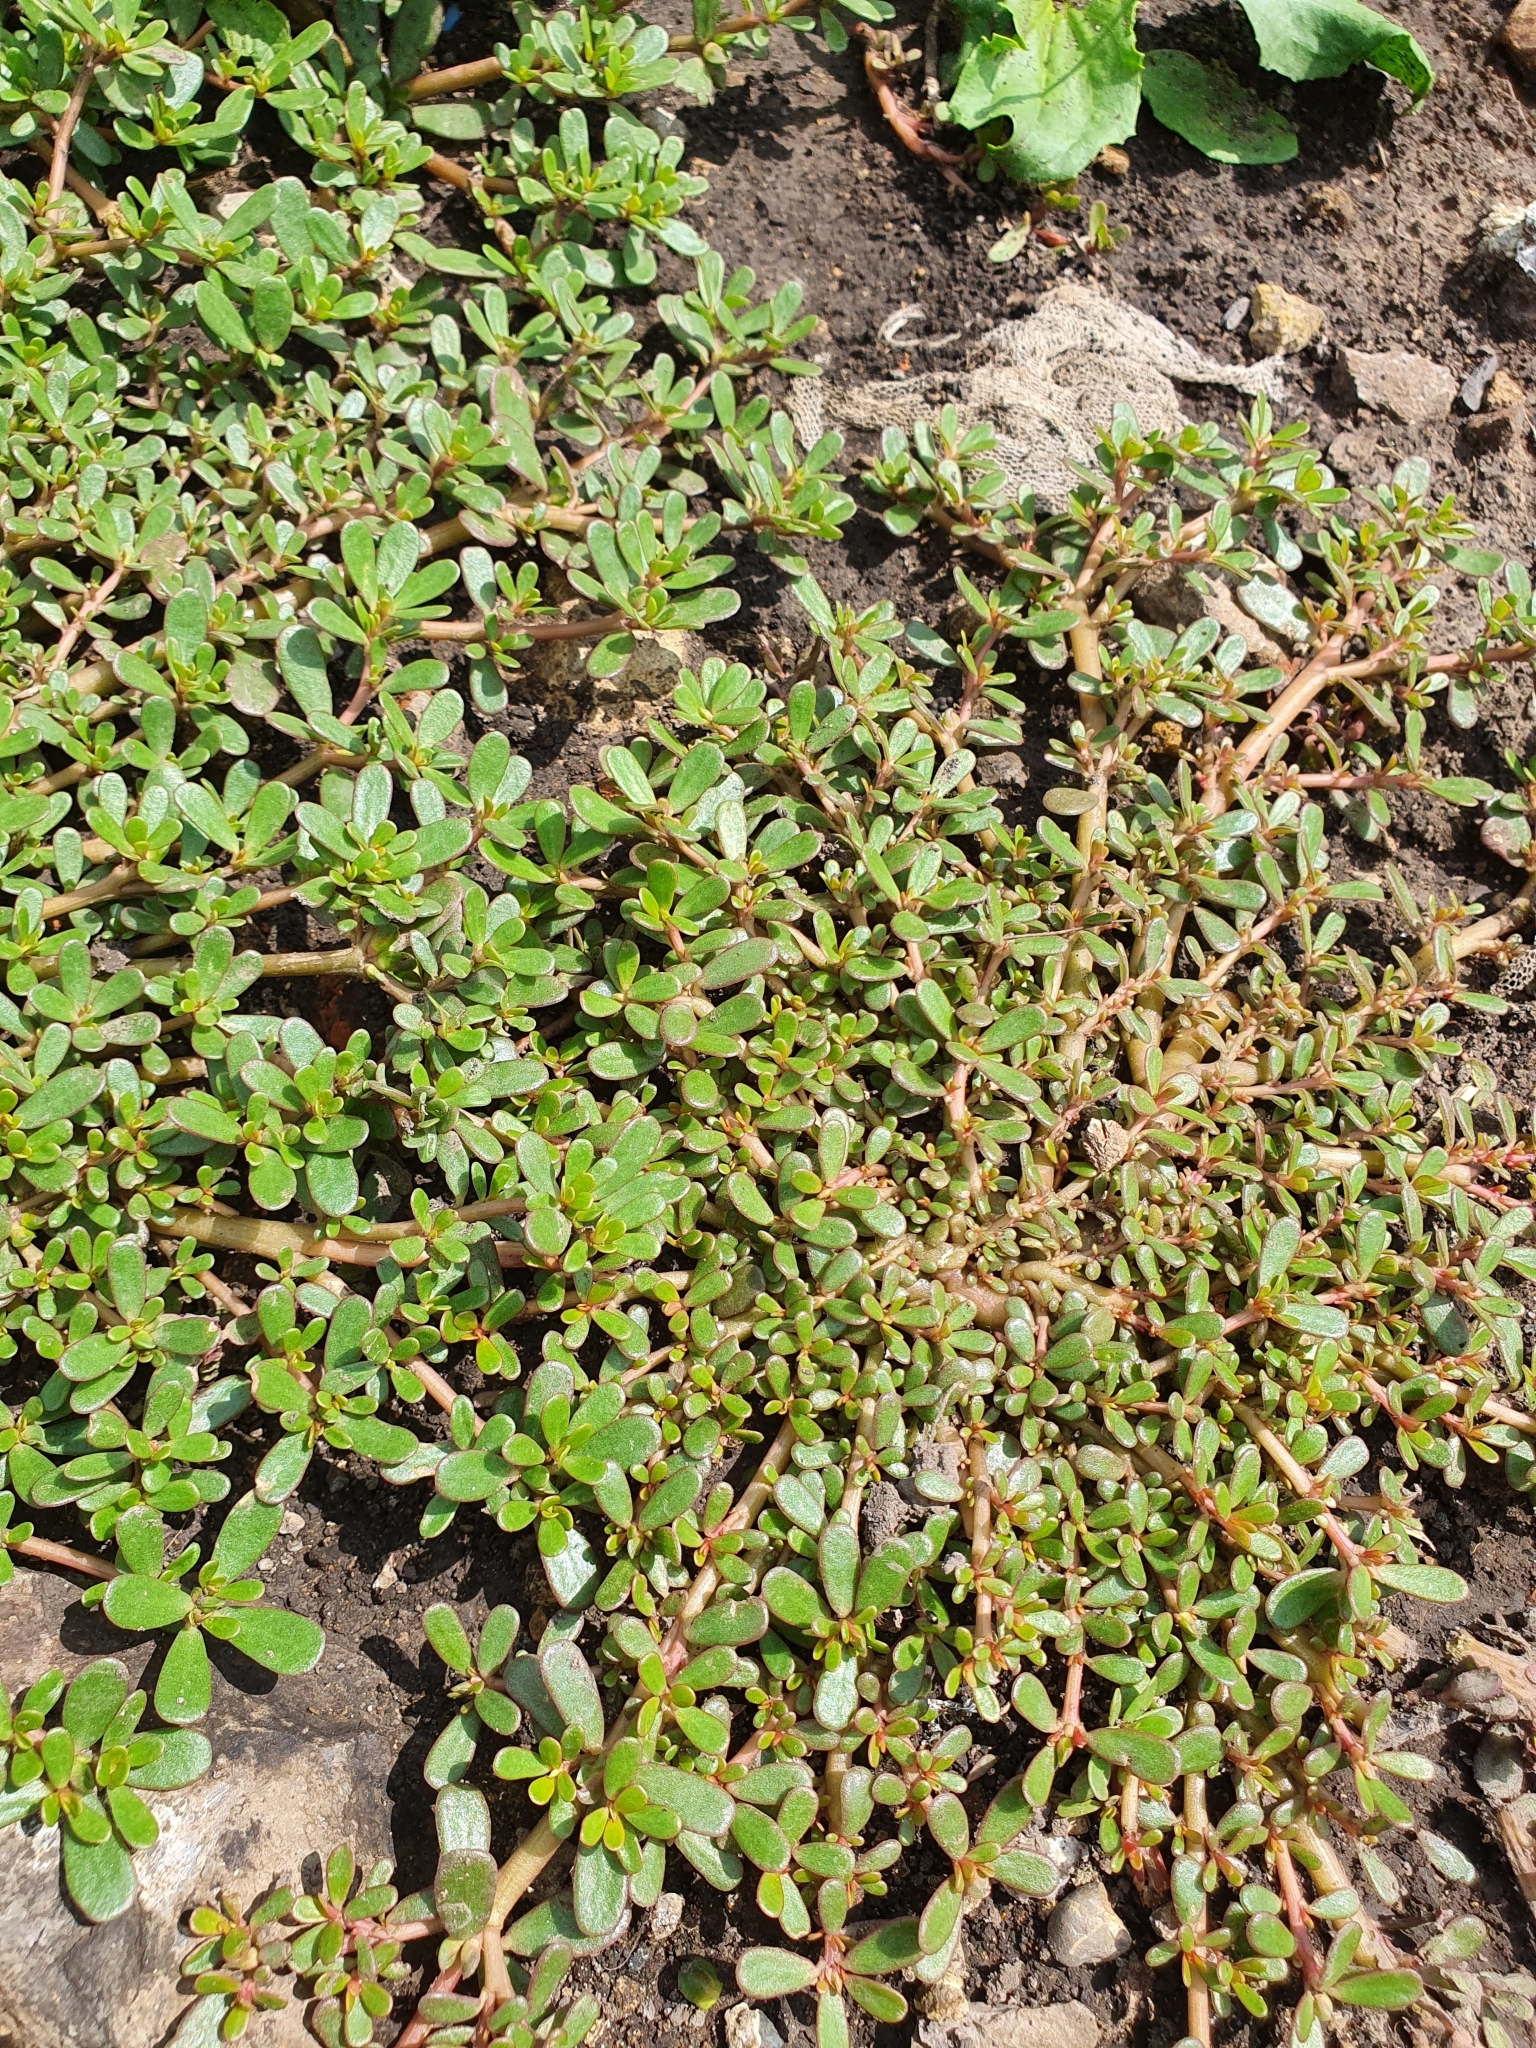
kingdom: Plantae
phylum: Tracheophyta
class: Magnoliopsida
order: Caryophyllales
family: Portulacaceae
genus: Portulaca
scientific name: Portulaca oleracea
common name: Common purslane
